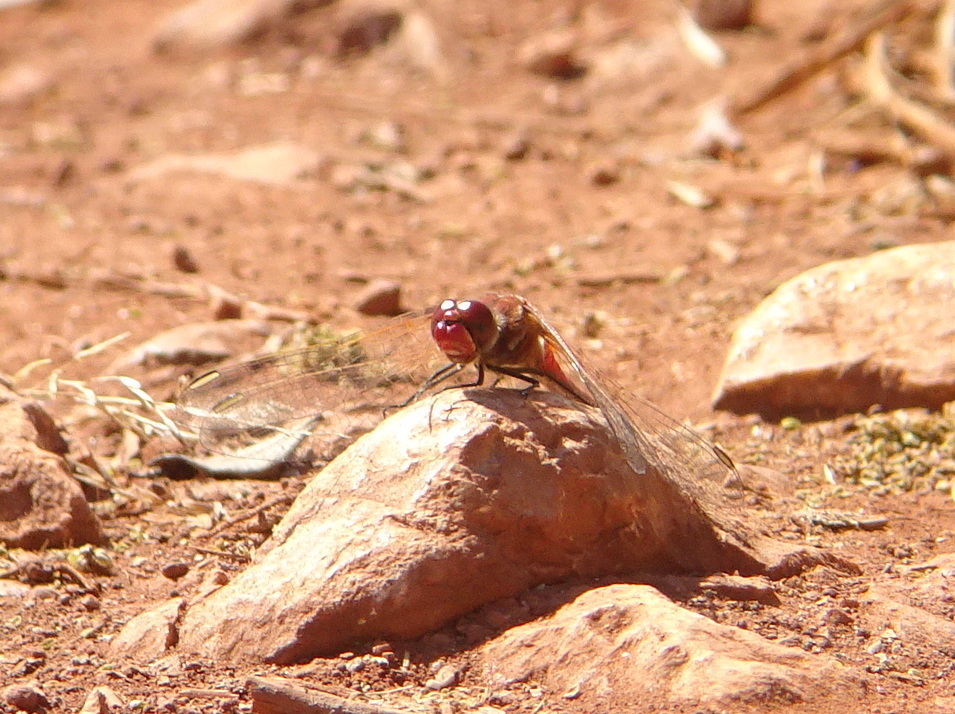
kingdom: Animalia
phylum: Arthropoda
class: Insecta
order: Odonata
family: Libellulidae
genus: Sympetrum
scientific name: Sympetrum fonscolombii
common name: Red-veined darter
